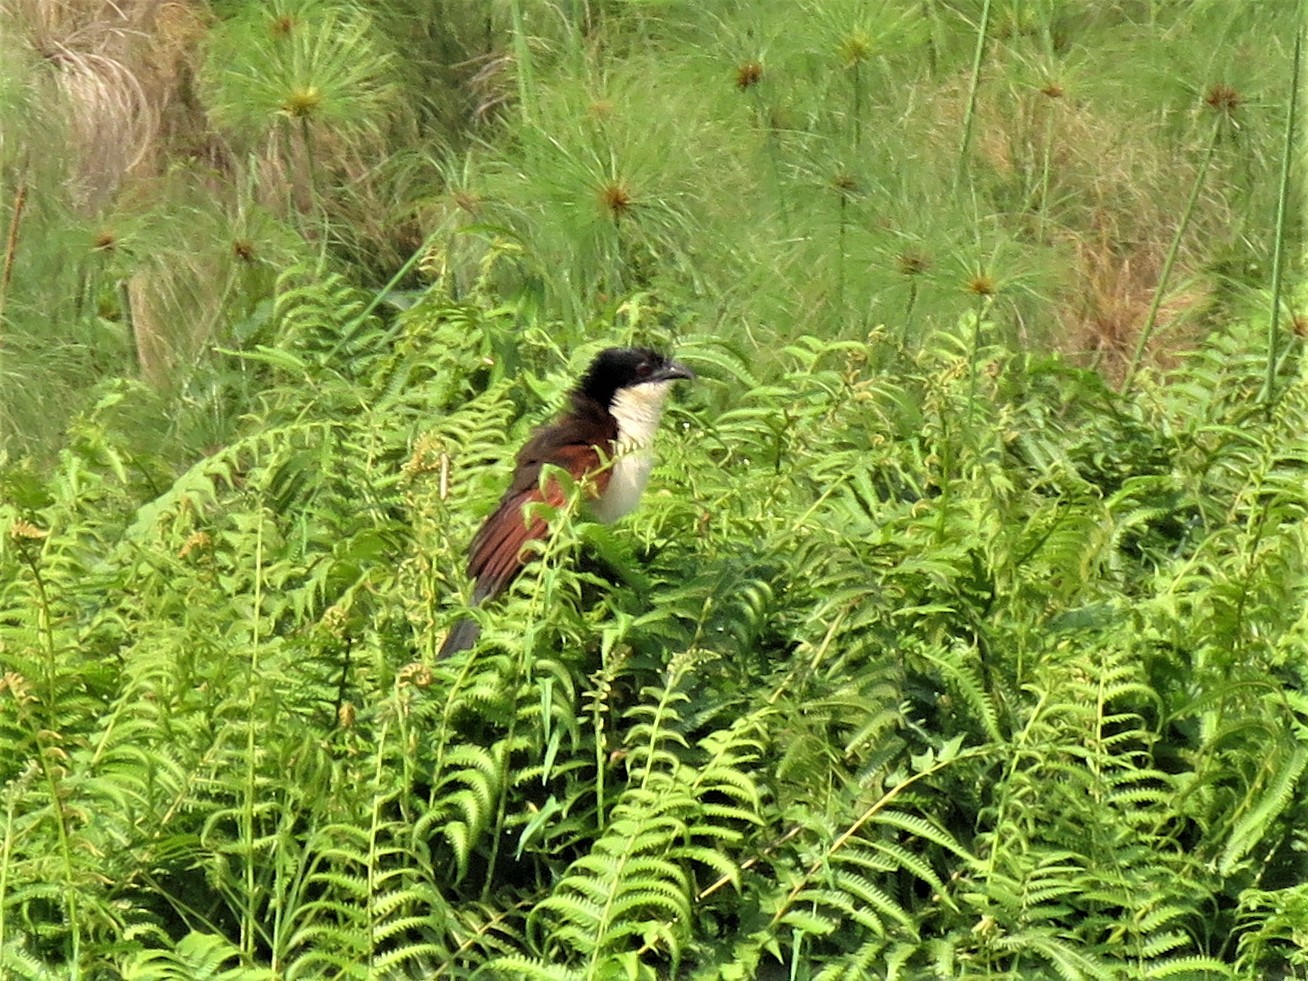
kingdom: Animalia
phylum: Chordata
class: Aves
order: Cuculiformes
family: Cuculidae
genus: Centropus
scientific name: Centropus monachus
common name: Blue-headed coucal
